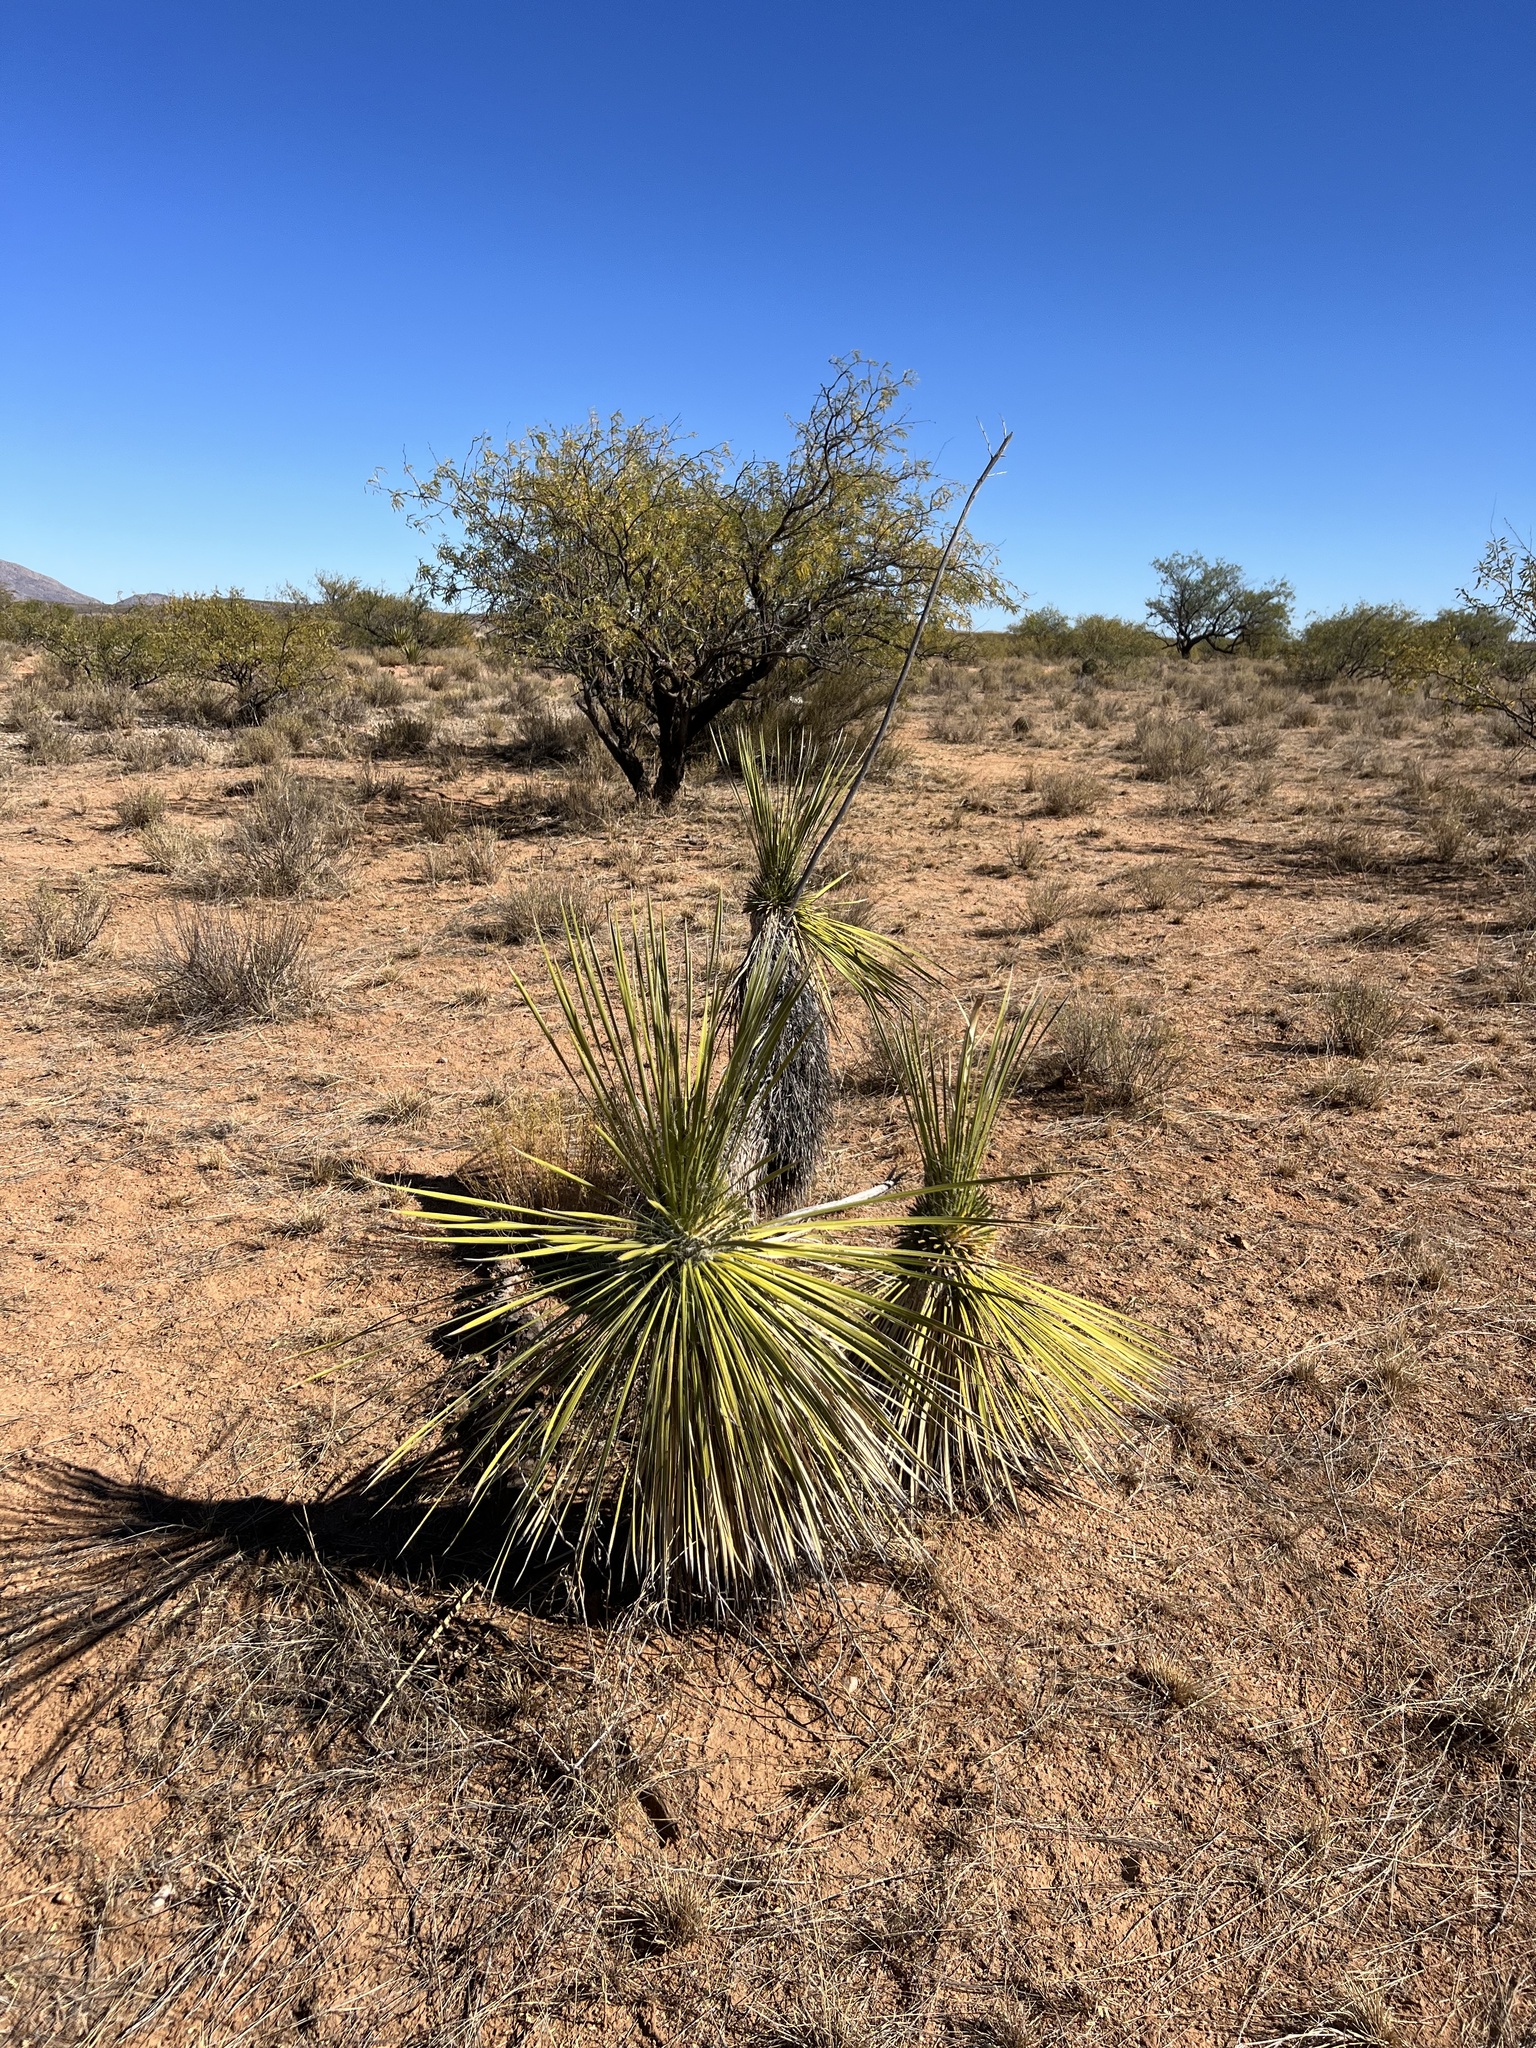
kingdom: Plantae
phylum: Tracheophyta
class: Liliopsida
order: Asparagales
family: Asparagaceae
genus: Yucca
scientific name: Yucca elata
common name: Palmella
